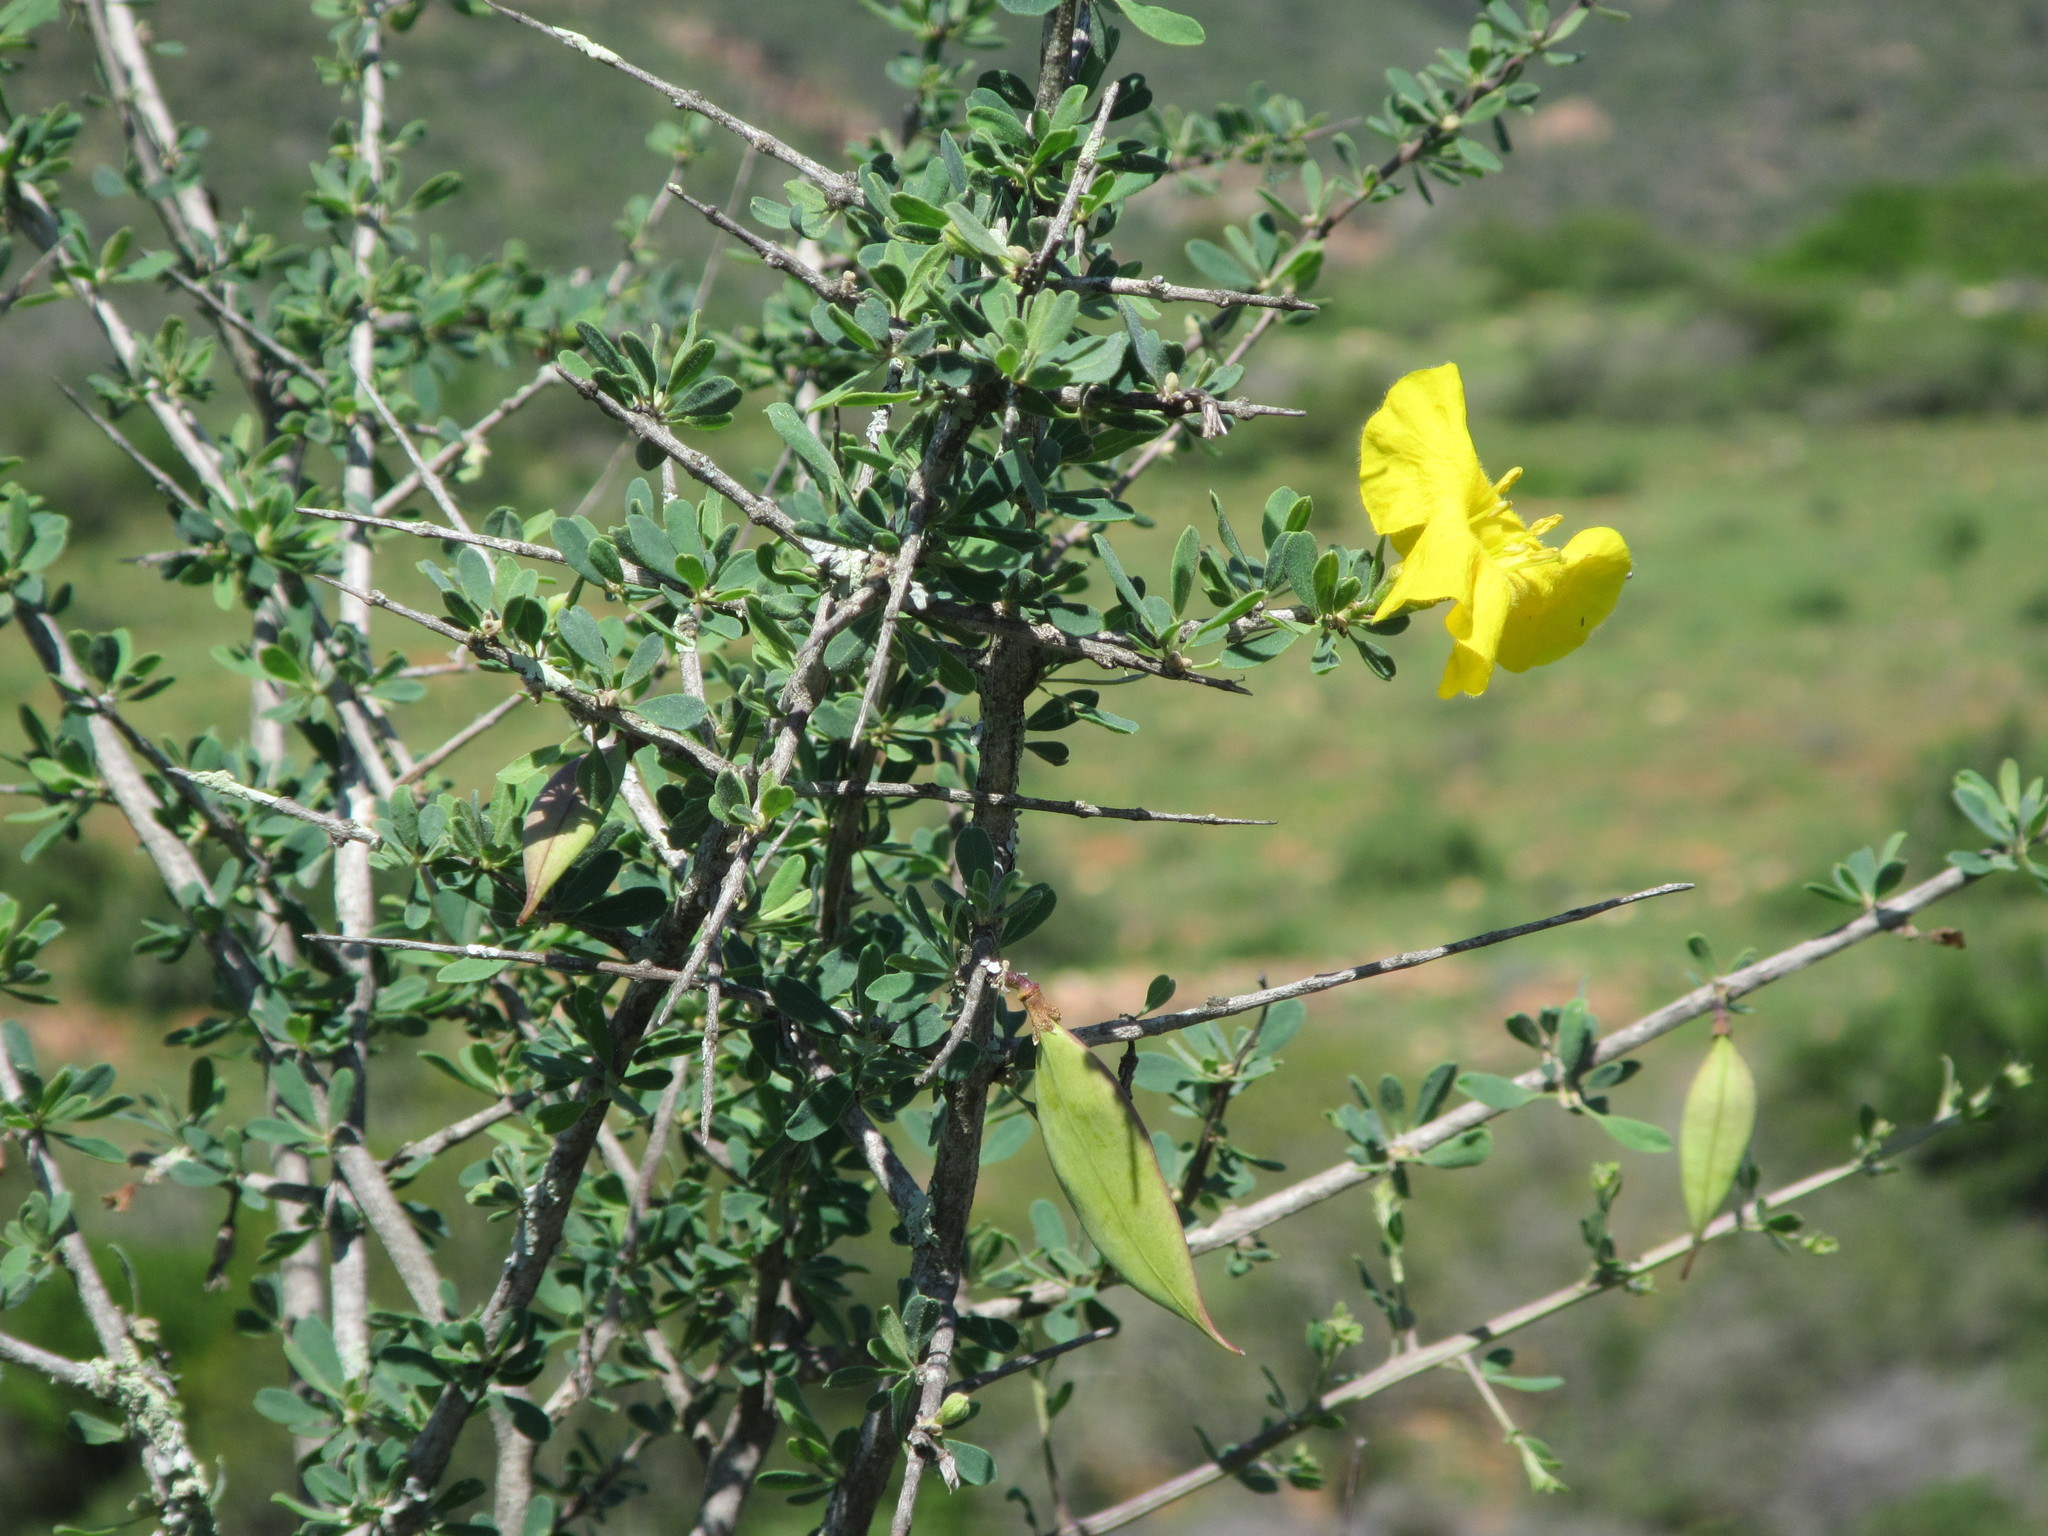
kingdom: Plantae
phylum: Tracheophyta
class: Magnoliopsida
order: Lamiales
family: Bignoniaceae
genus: Rhigozum
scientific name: Rhigozum obovatum
